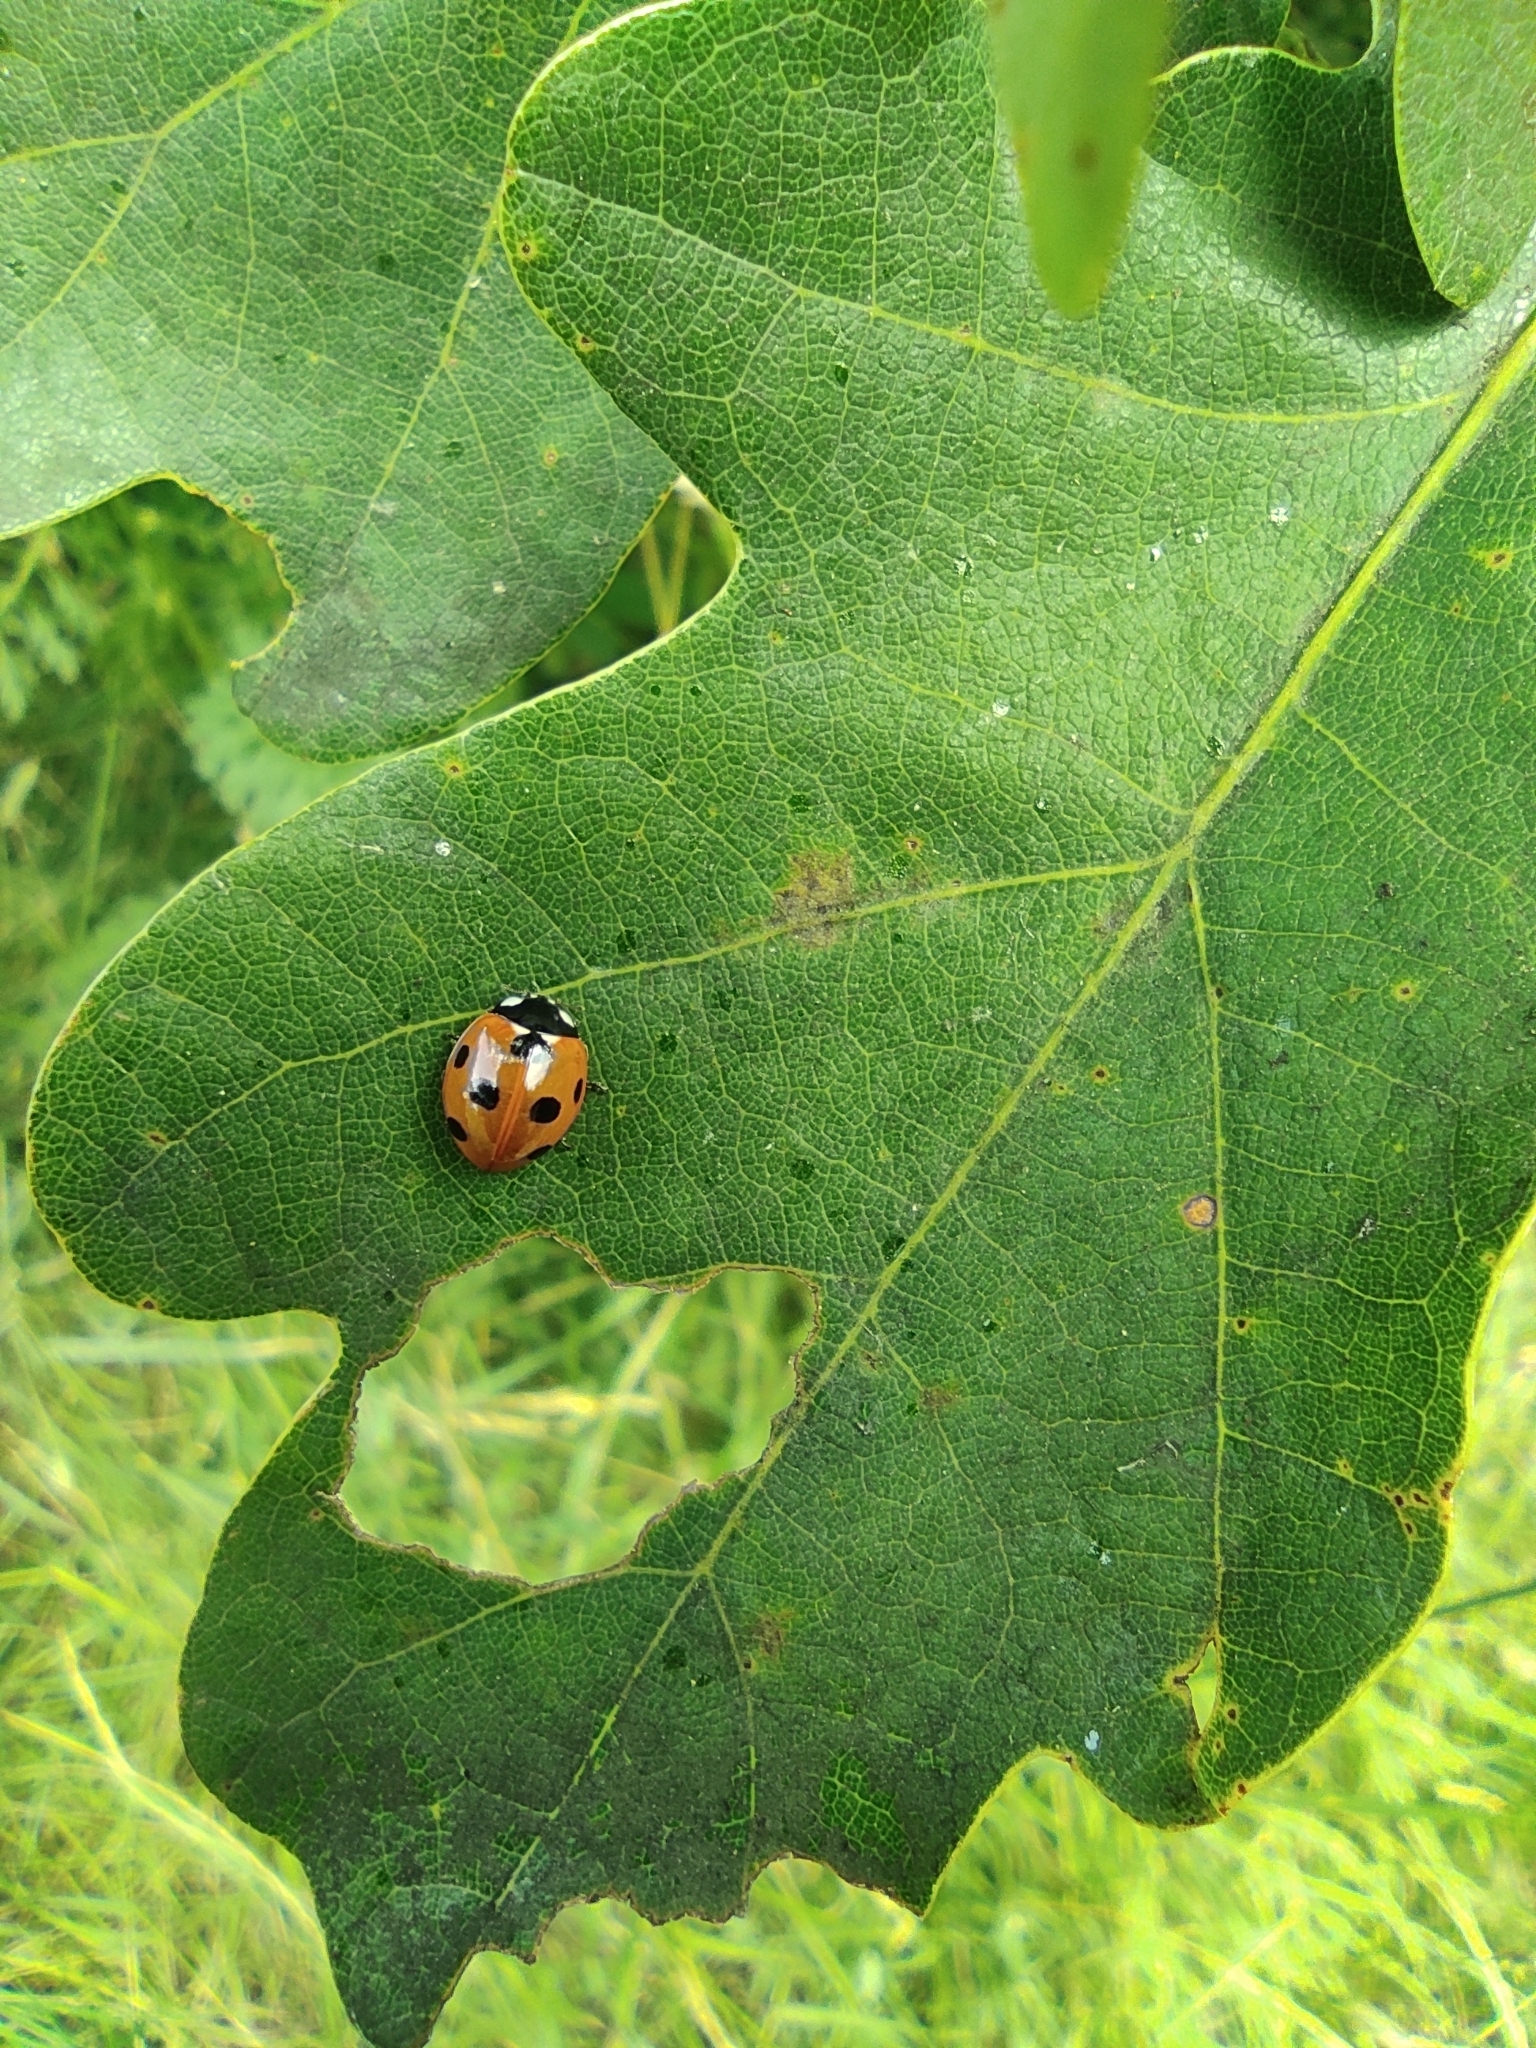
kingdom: Animalia
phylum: Arthropoda
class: Insecta
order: Coleoptera
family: Coccinellidae
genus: Coccinella
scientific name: Coccinella septempunctata
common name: Sevenspotted lady beetle
